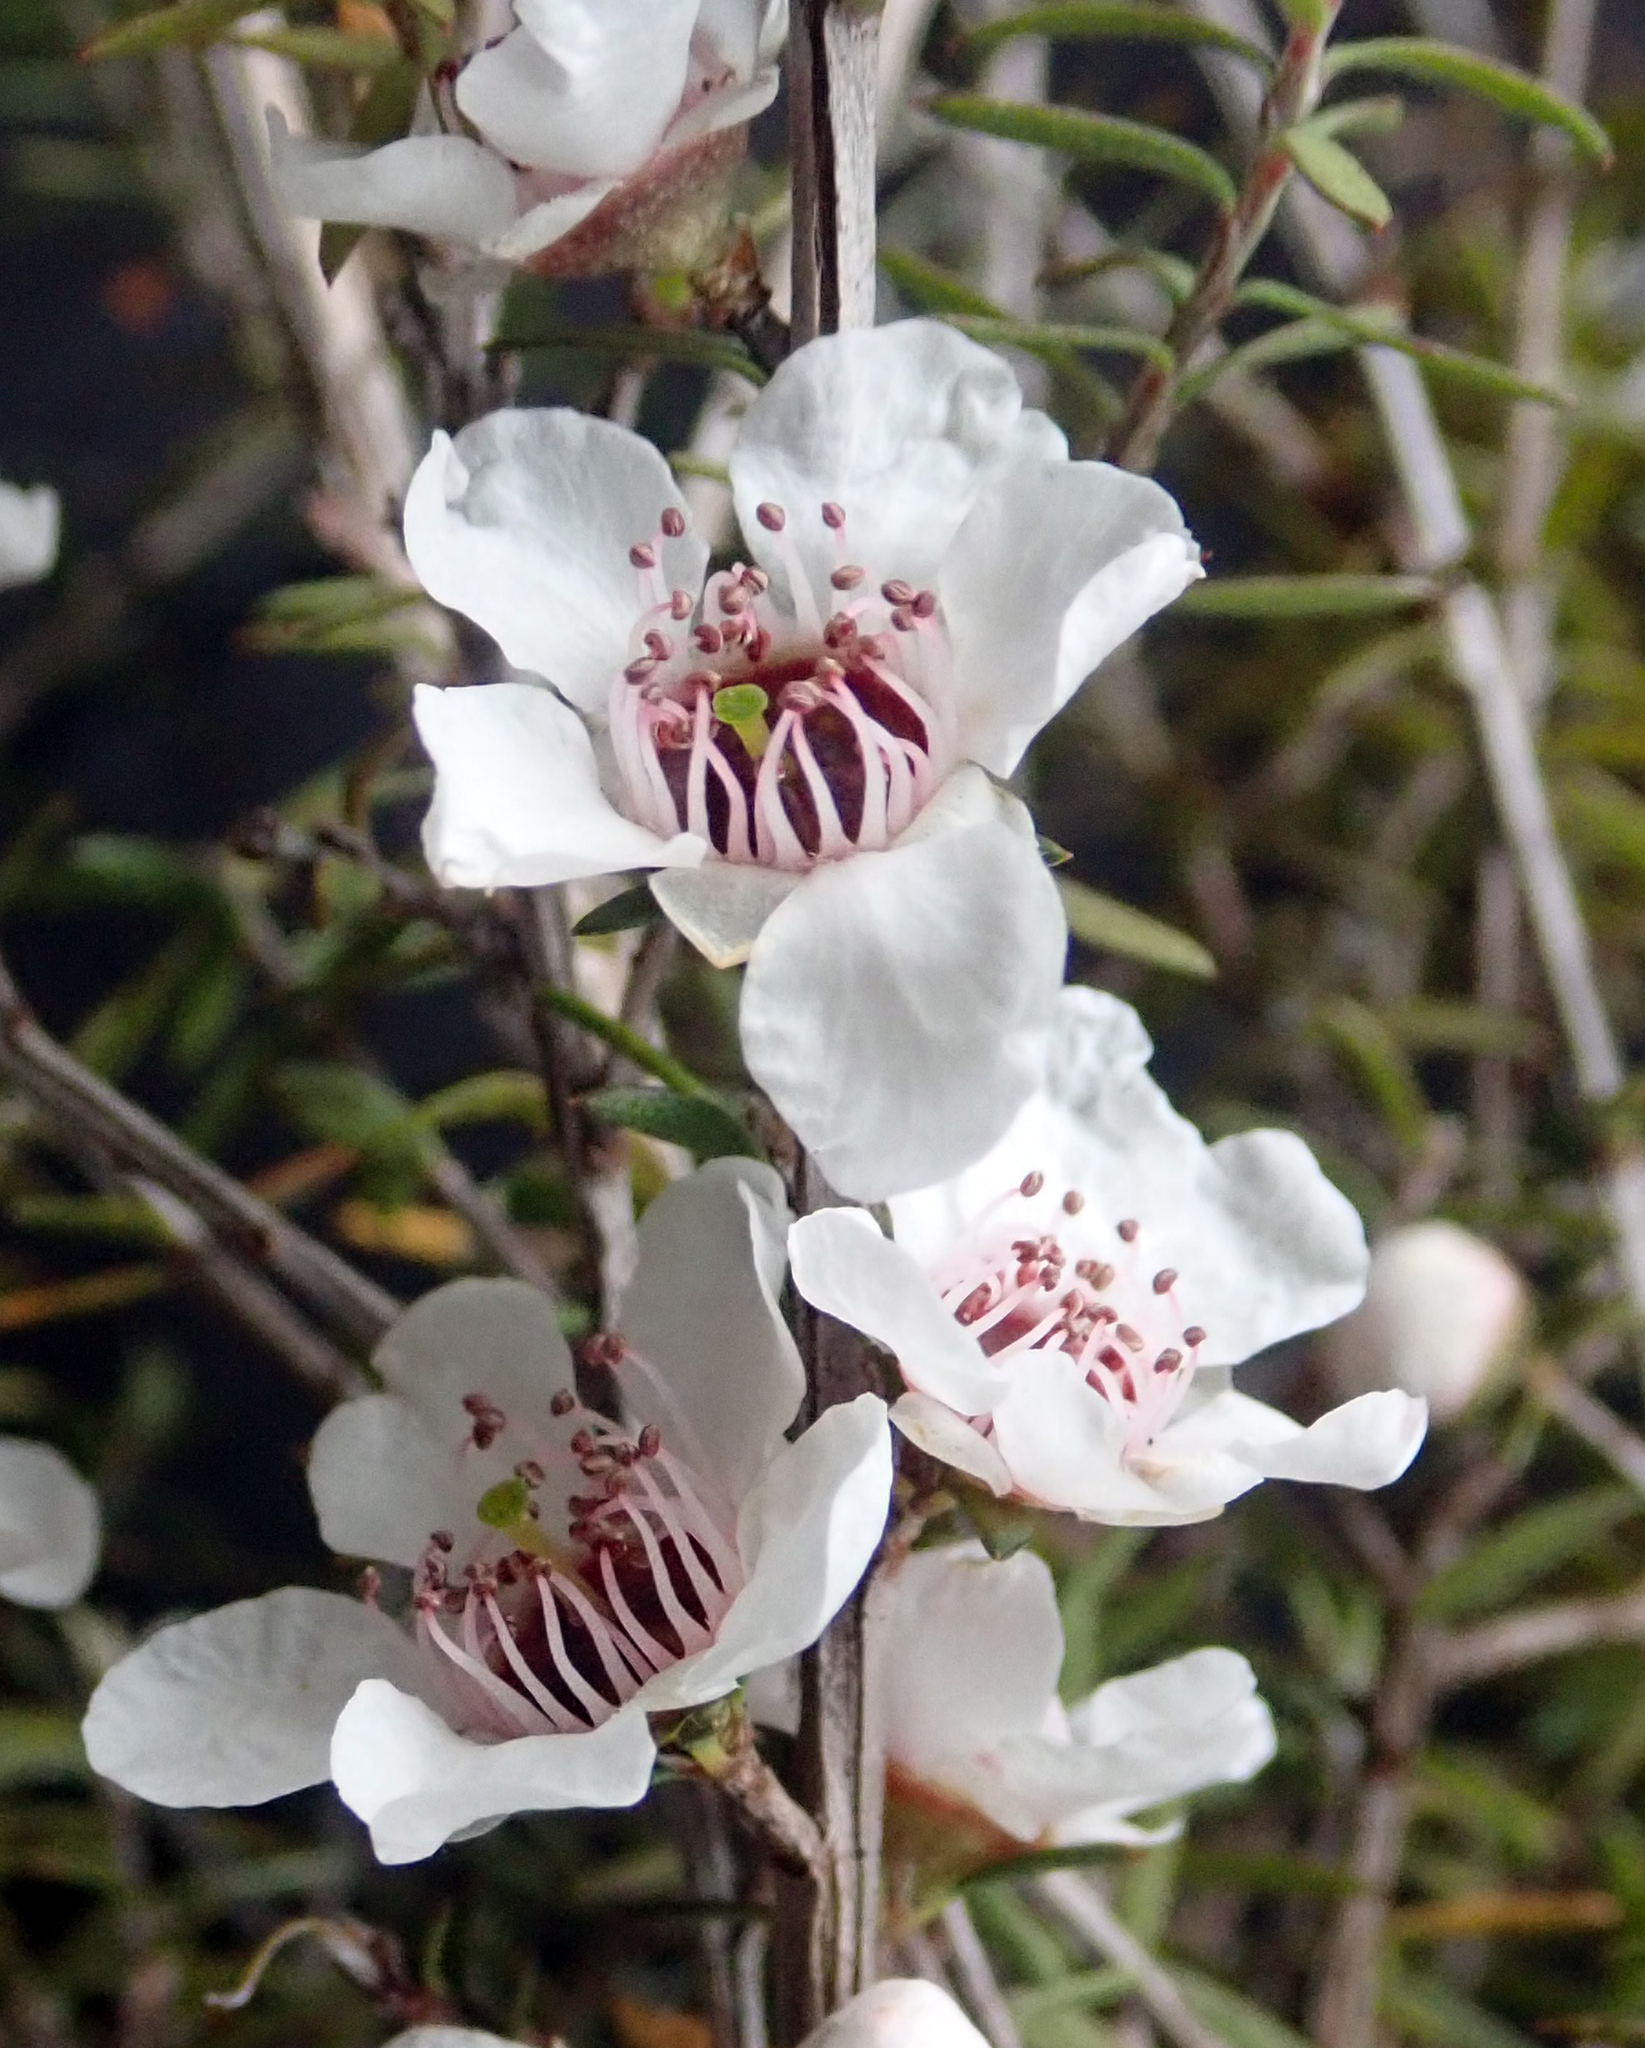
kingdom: Plantae
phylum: Tracheophyta
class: Magnoliopsida
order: Myrtales
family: Myrtaceae
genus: Leptospermum
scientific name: Leptospermum scoparium
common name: Broom tea-tree
